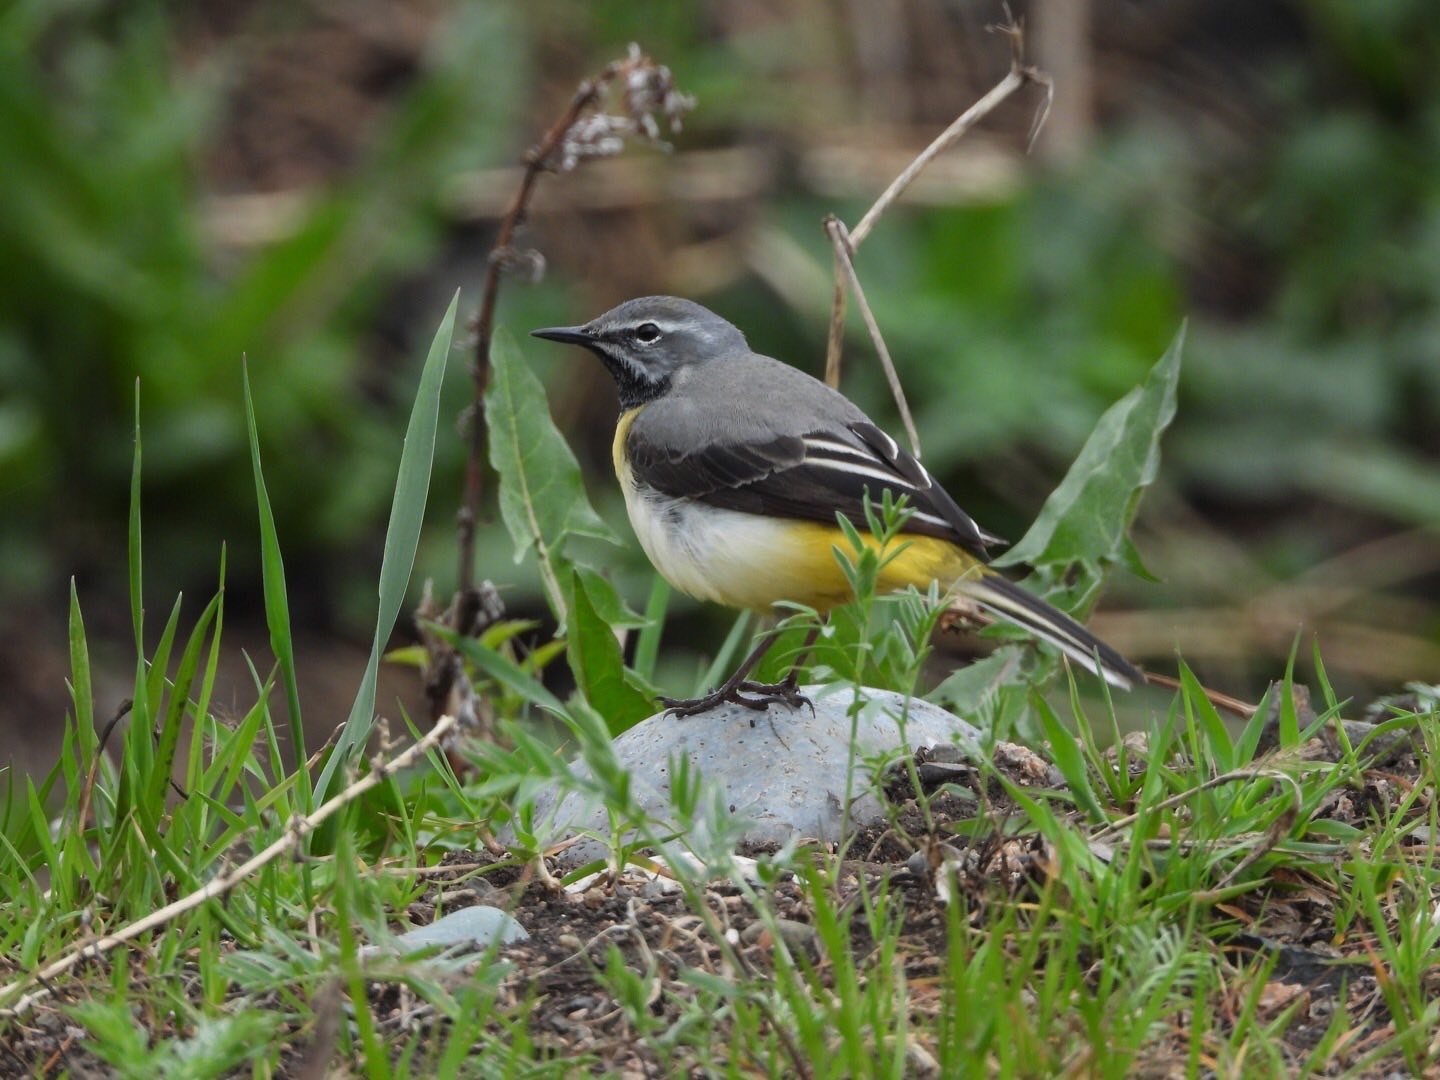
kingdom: Animalia
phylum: Chordata
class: Aves
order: Passeriformes
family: Motacillidae
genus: Motacilla
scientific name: Motacilla cinerea
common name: Grey wagtail
